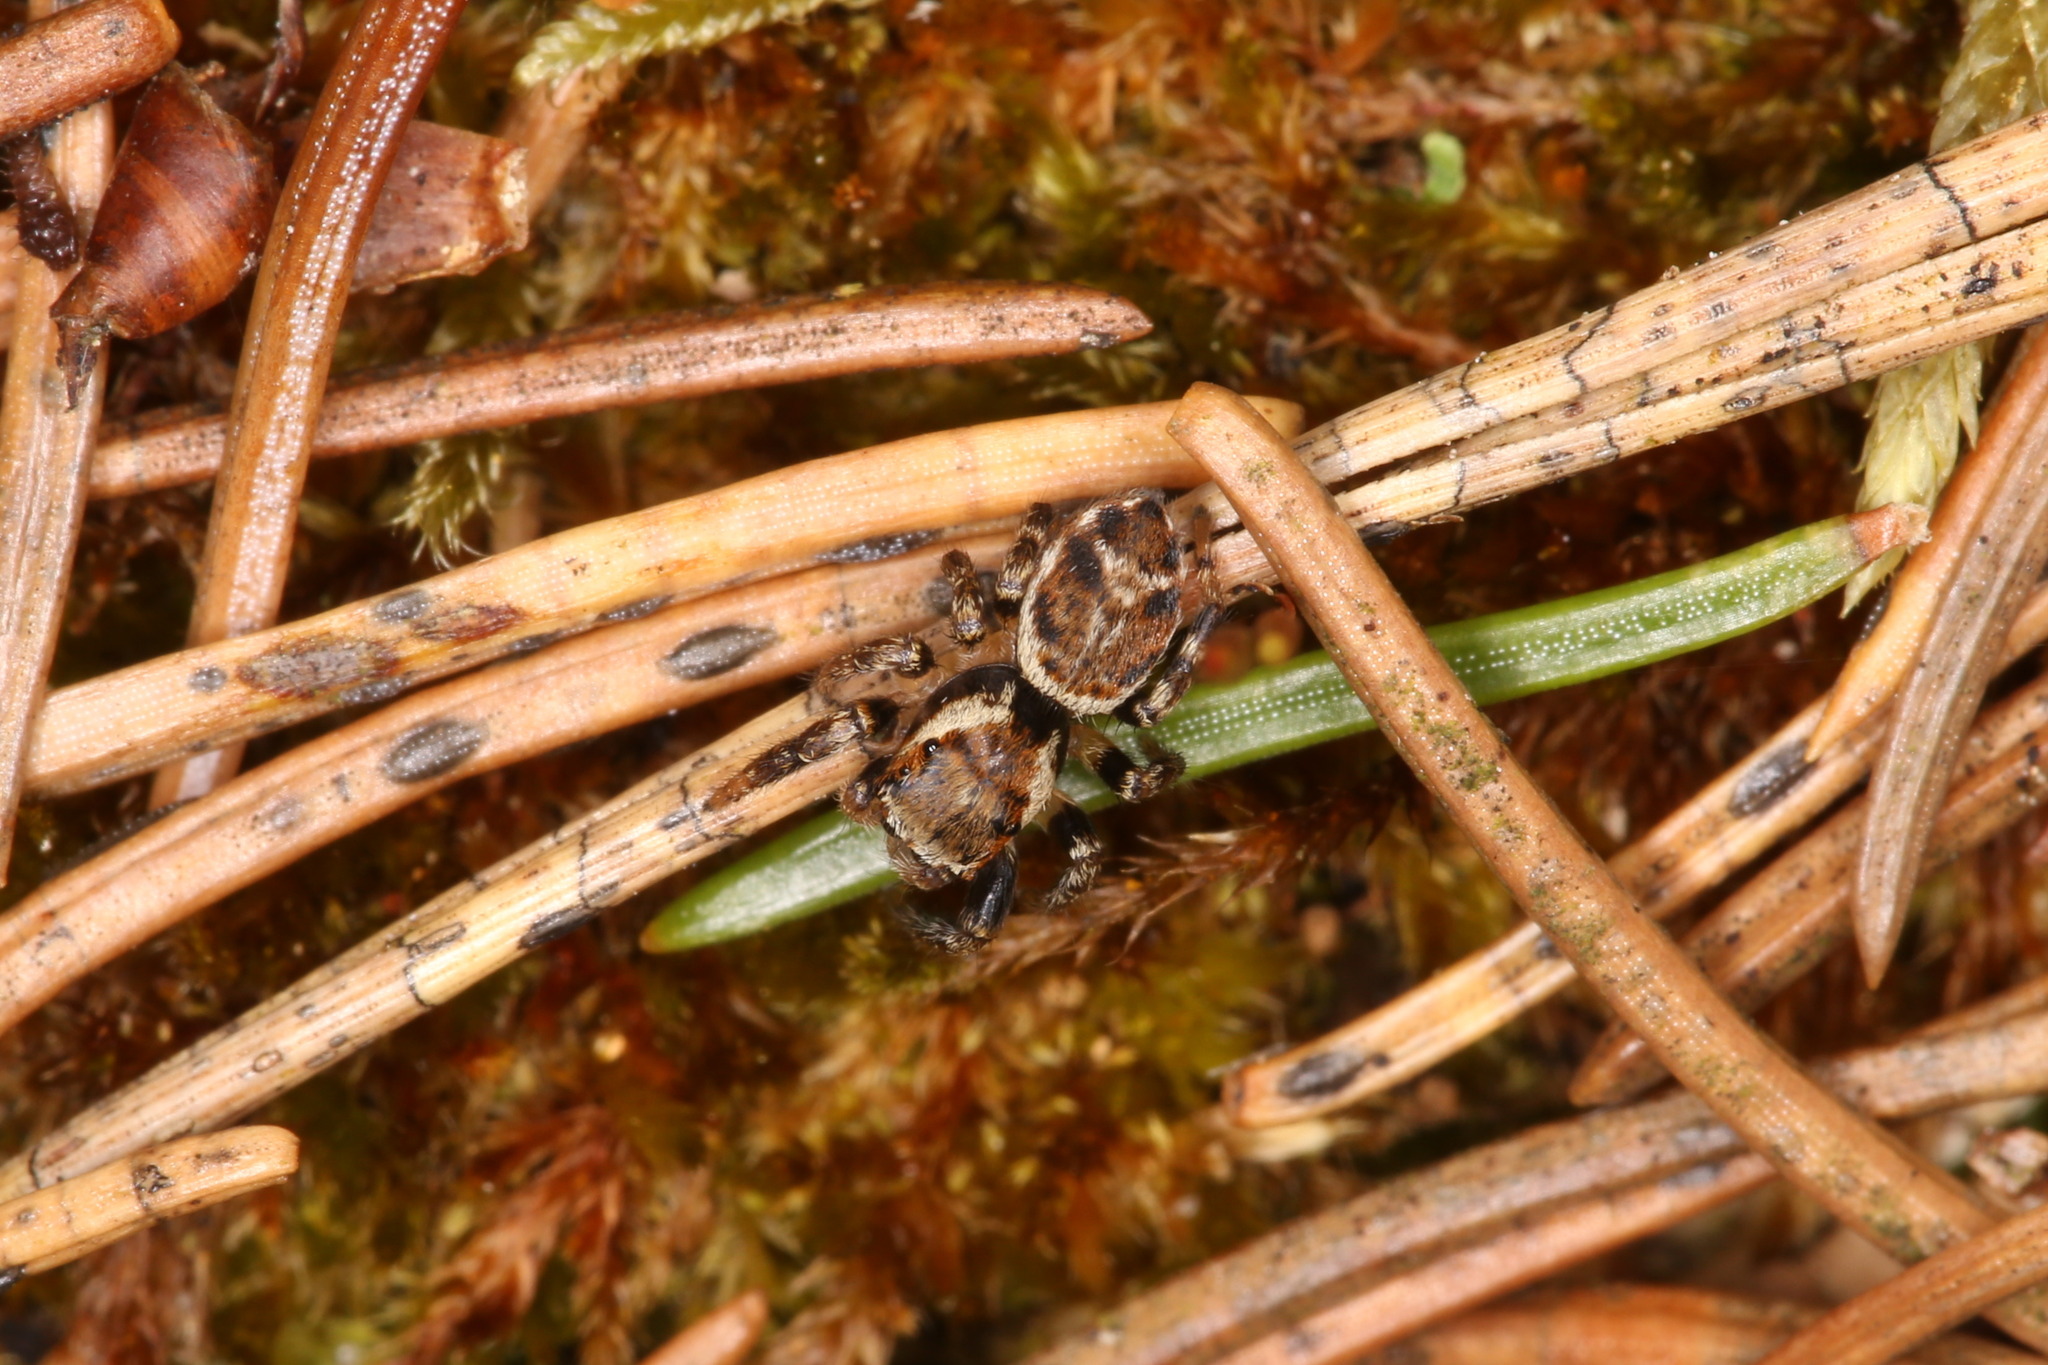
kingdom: Animalia
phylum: Arthropoda
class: Arachnida
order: Araneae
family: Salticidae
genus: Evarcha
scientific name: Evarcha falcata
